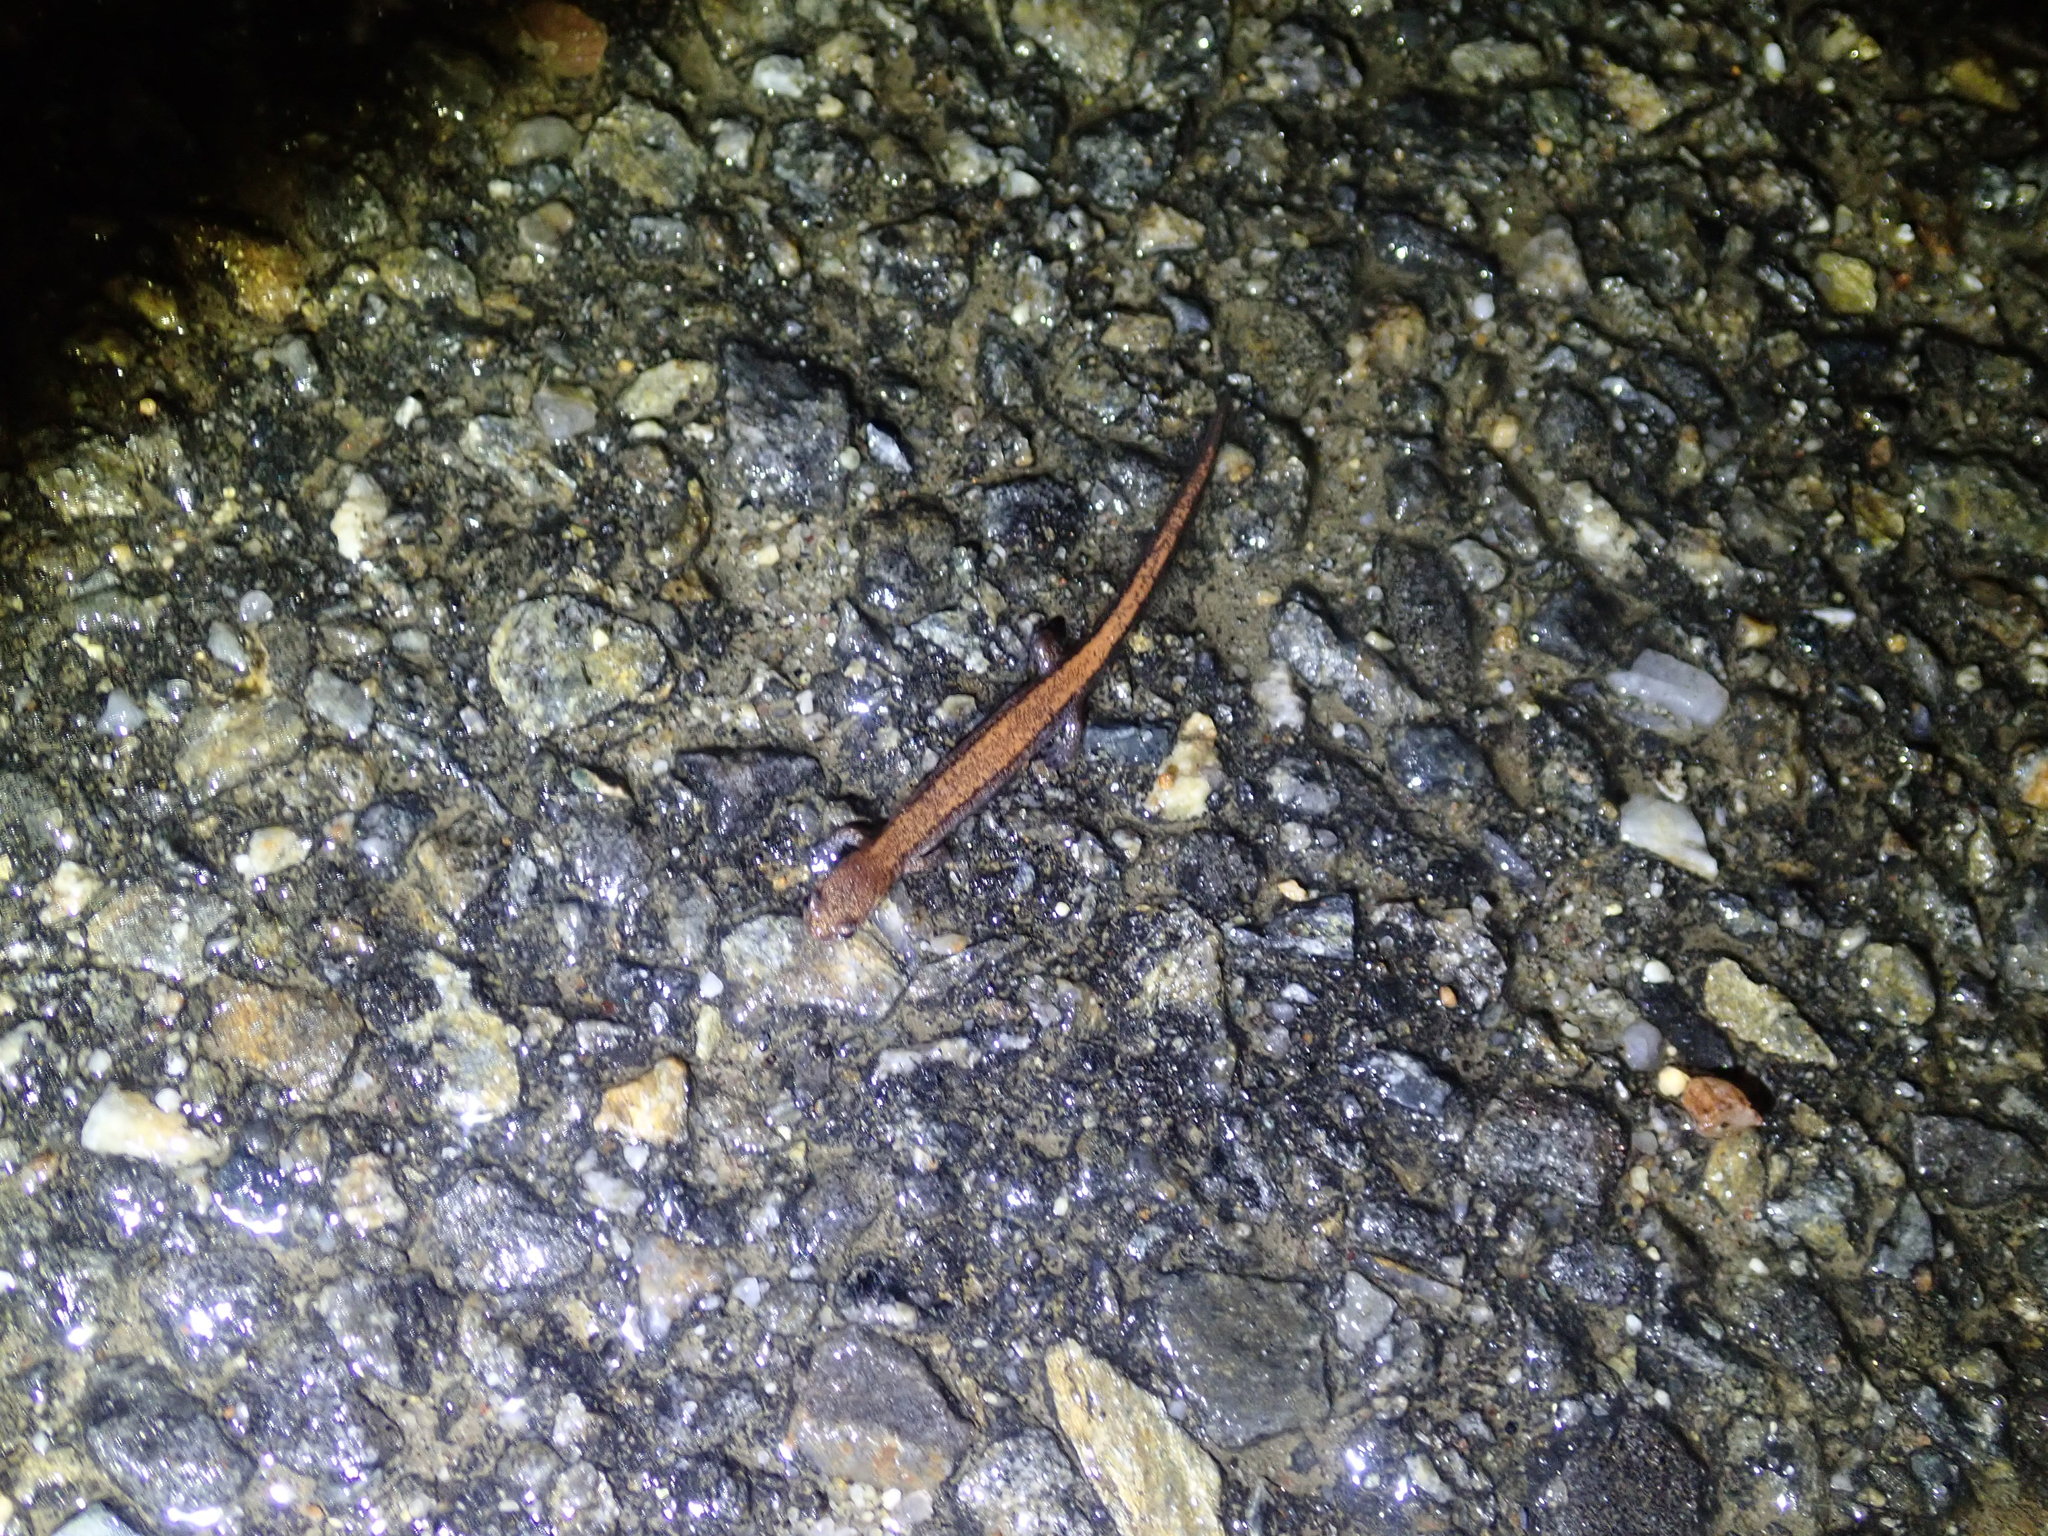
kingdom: Animalia
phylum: Chordata
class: Amphibia
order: Caudata
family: Plethodontidae
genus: Plethodon
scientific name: Plethodon cinereus
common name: Redback salamander
